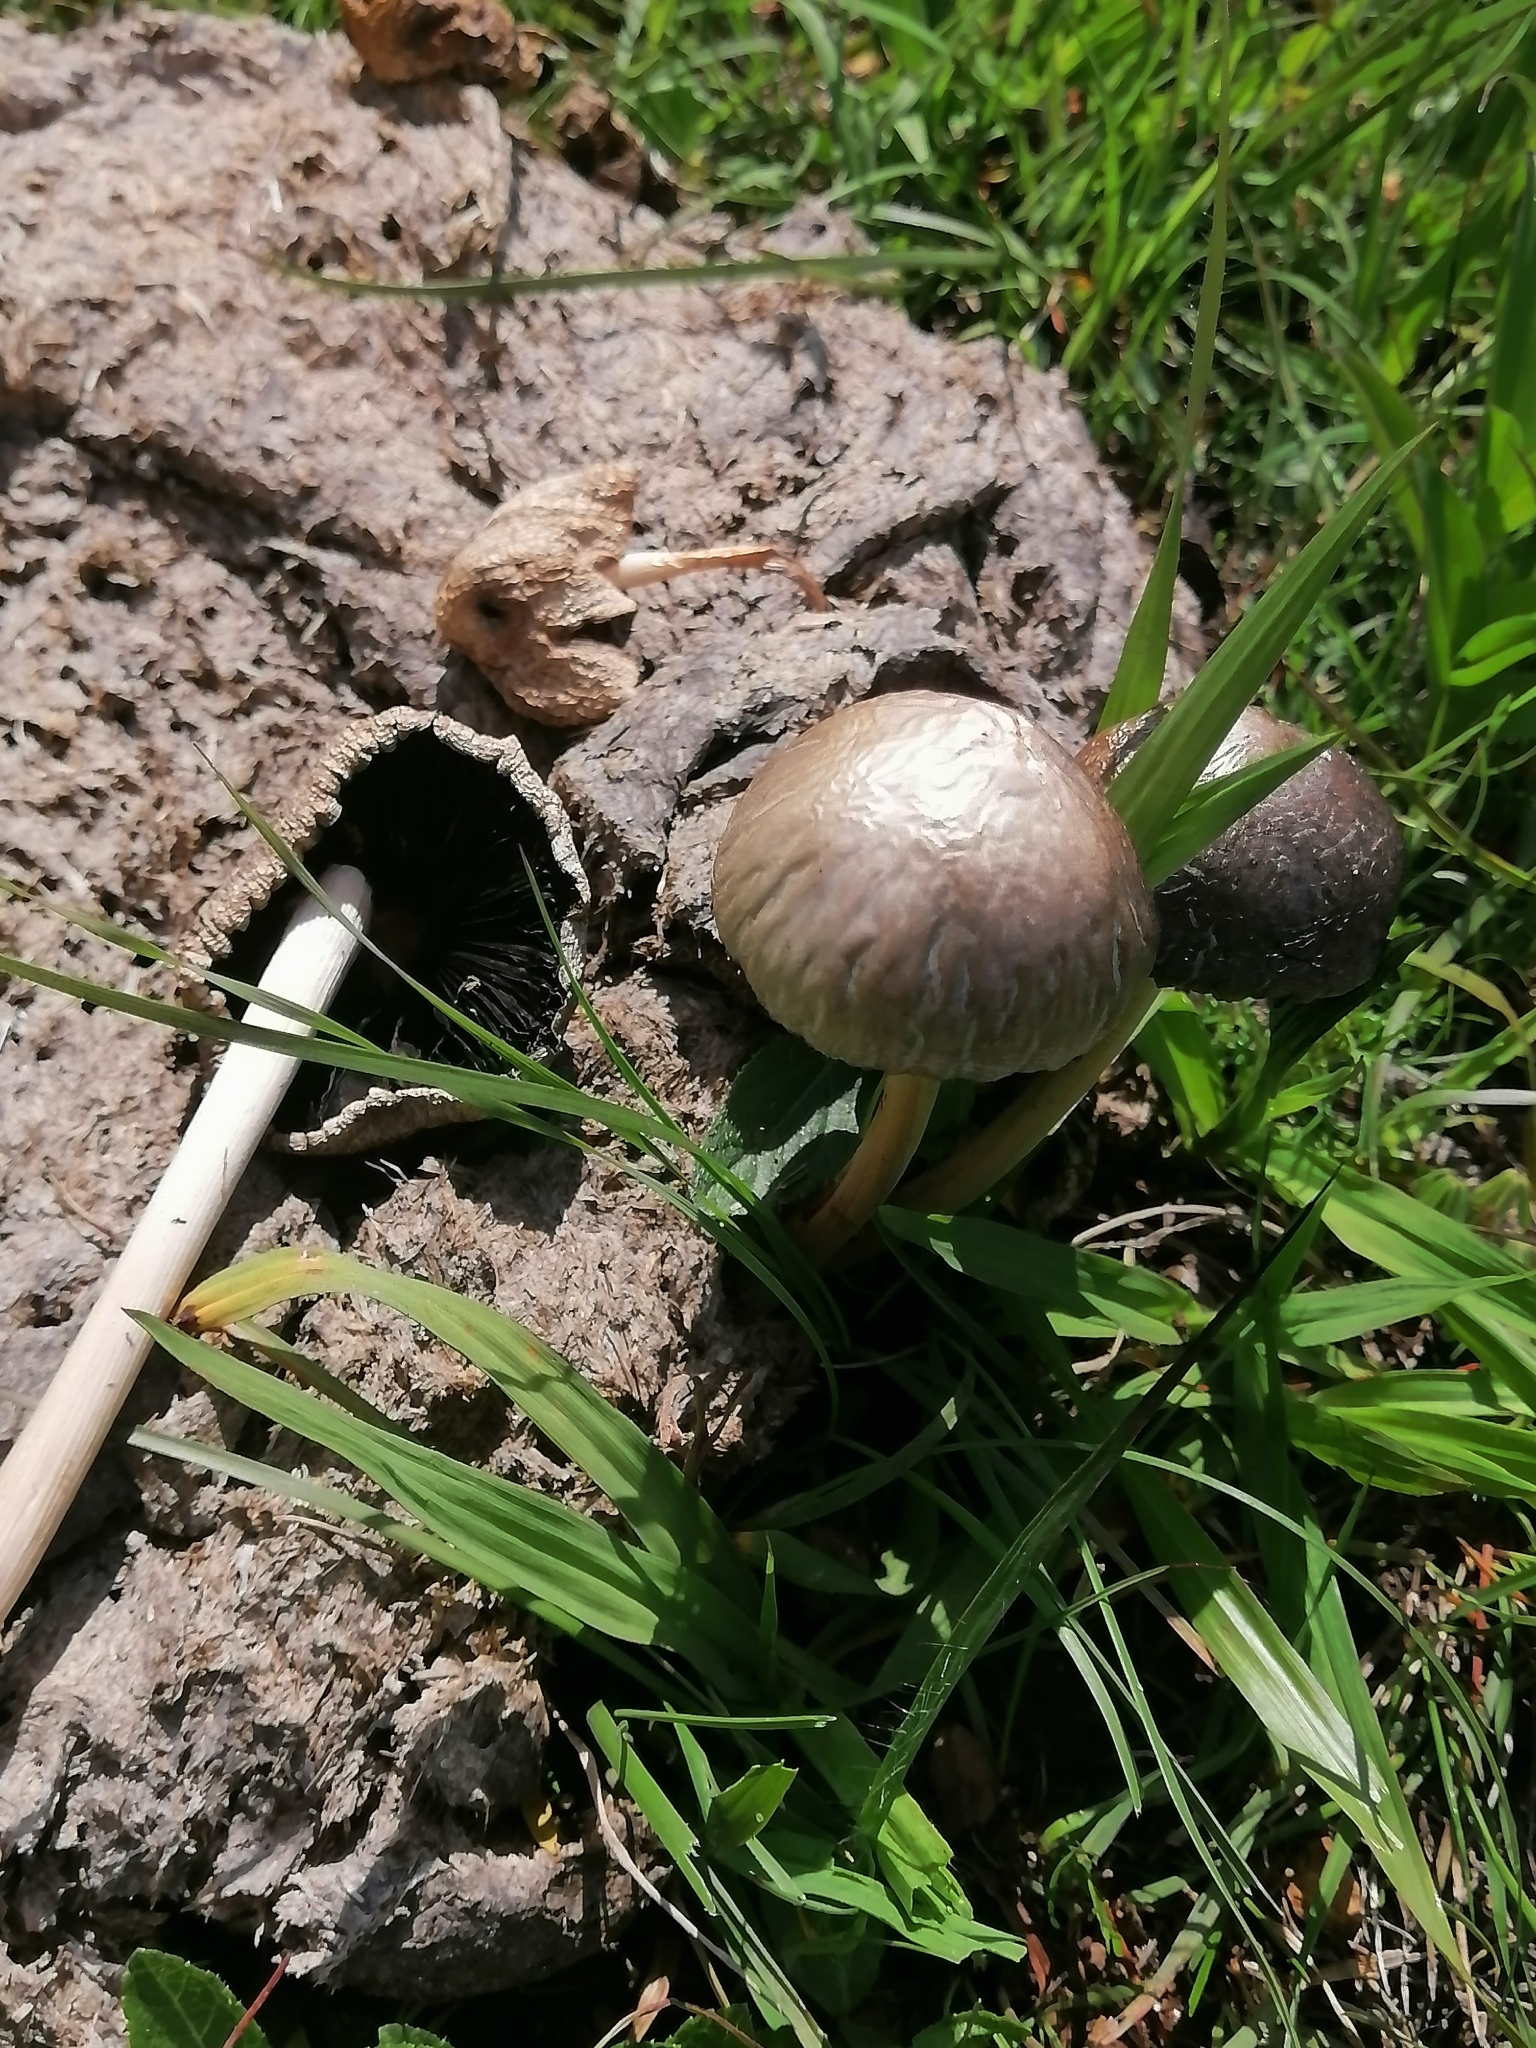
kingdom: Fungi
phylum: Basidiomycota
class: Agaricomycetes
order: Agaricales
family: Bolbitiaceae
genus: Panaeolus
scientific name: Panaeolus antillarum
